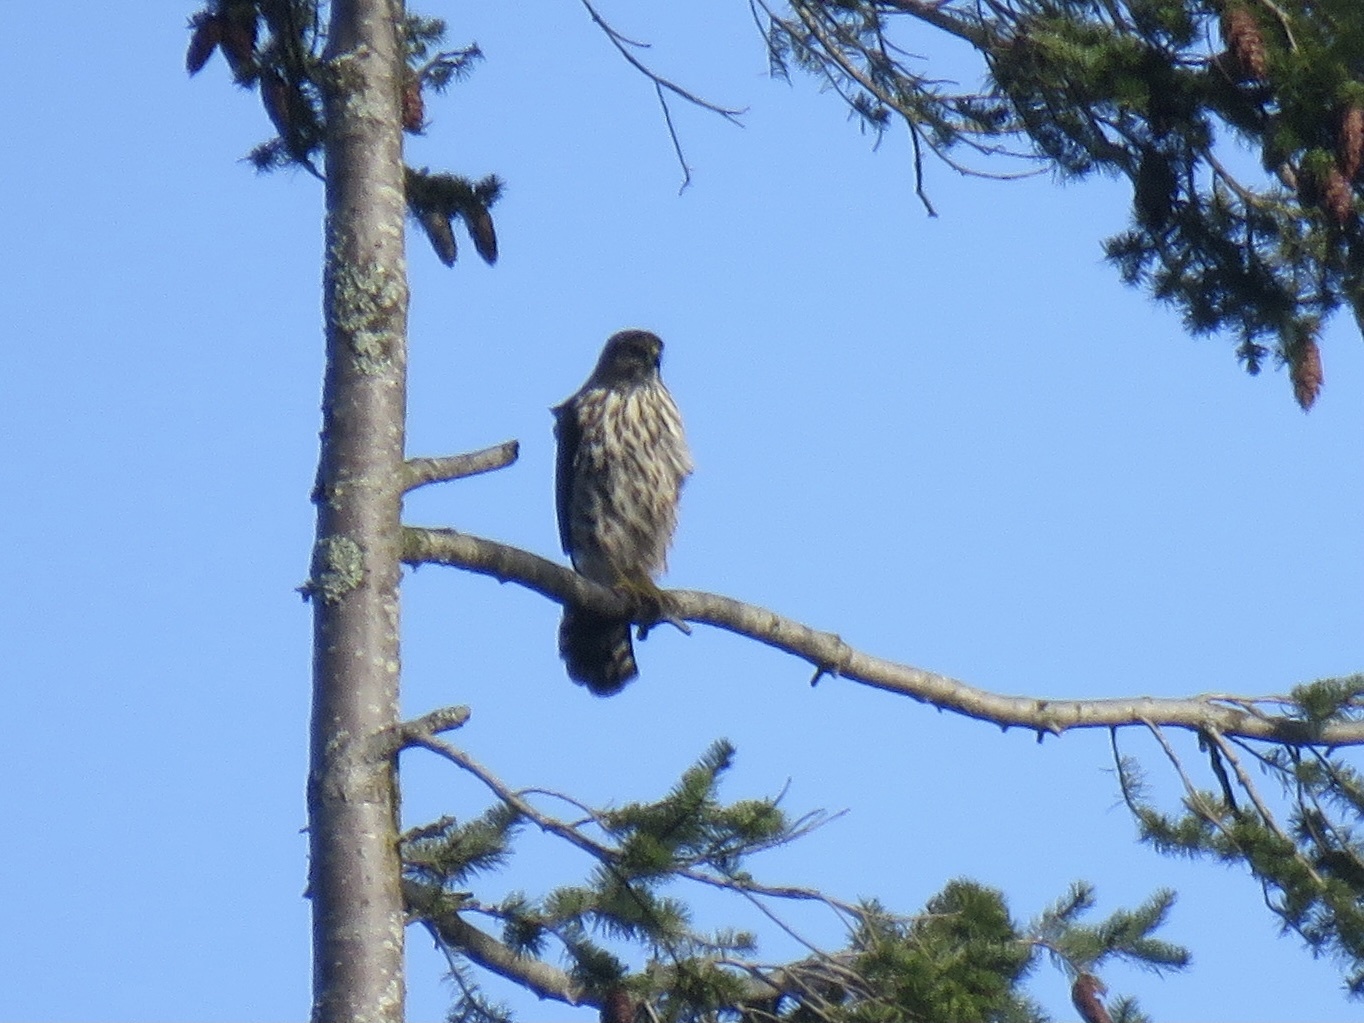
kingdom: Animalia
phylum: Chordata
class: Aves
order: Accipitriformes
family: Accipitridae
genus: Accipiter
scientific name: Accipiter cooperii
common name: Cooper's hawk
